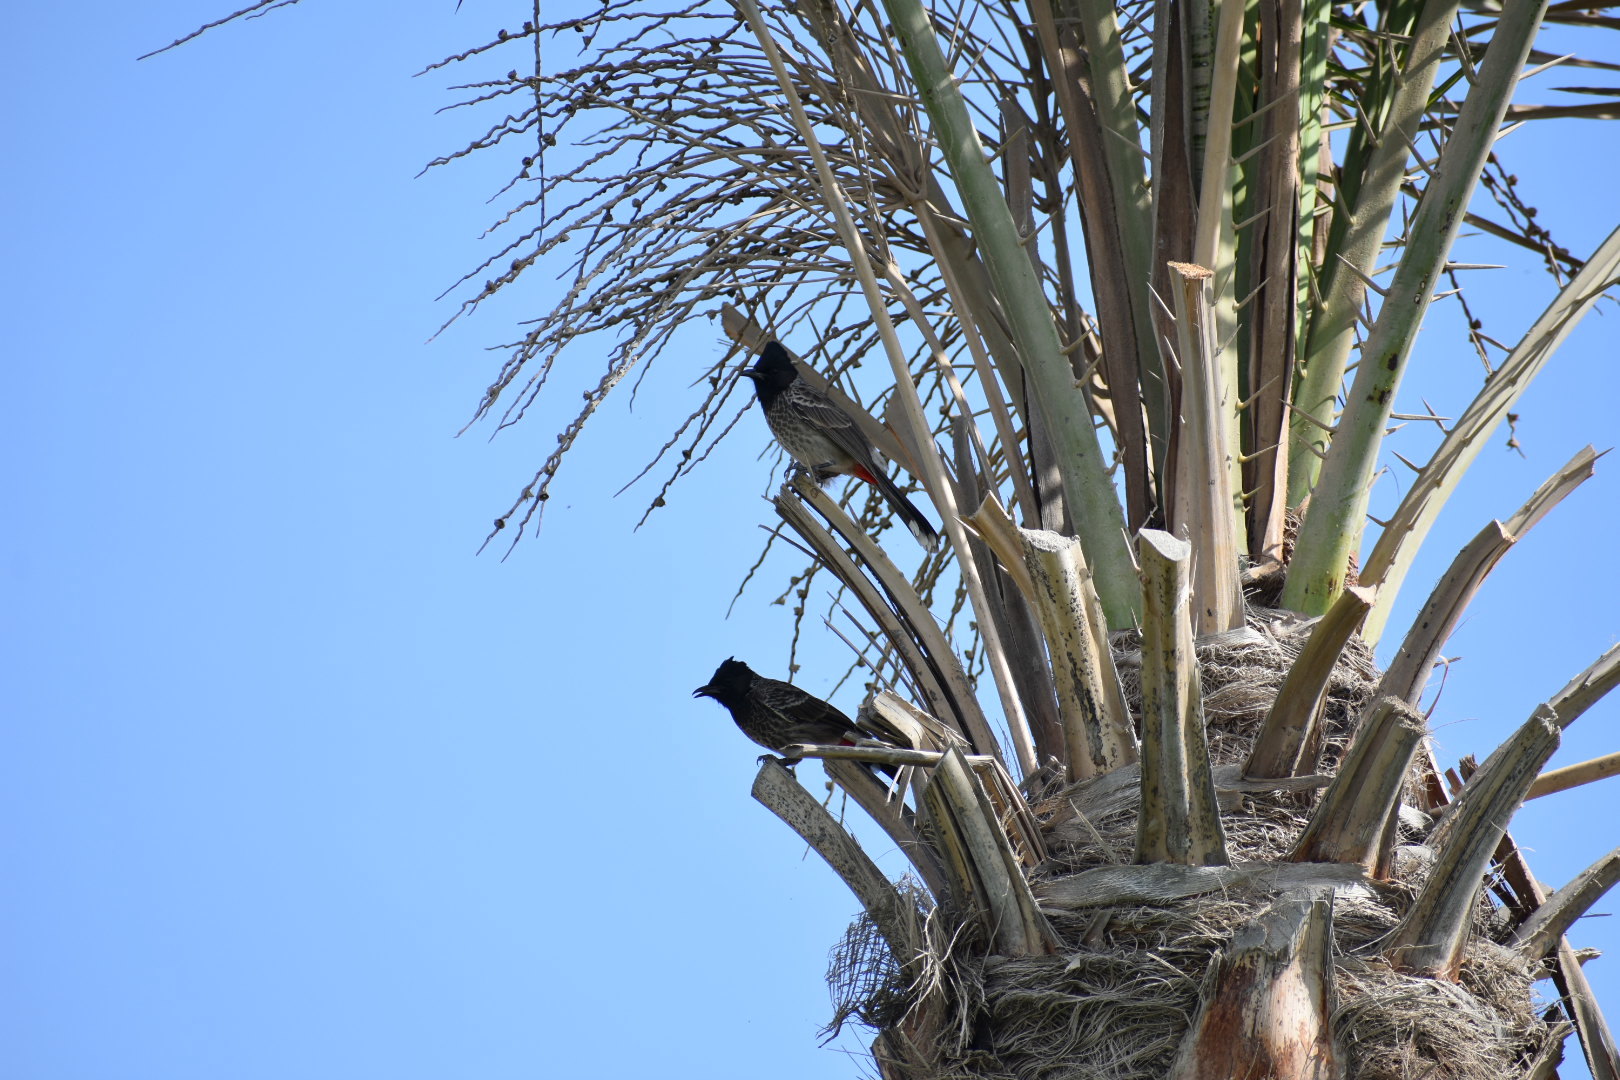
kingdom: Animalia
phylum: Chordata
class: Aves
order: Passeriformes
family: Pycnonotidae
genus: Pycnonotus
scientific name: Pycnonotus cafer
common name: Red-vented bulbul
